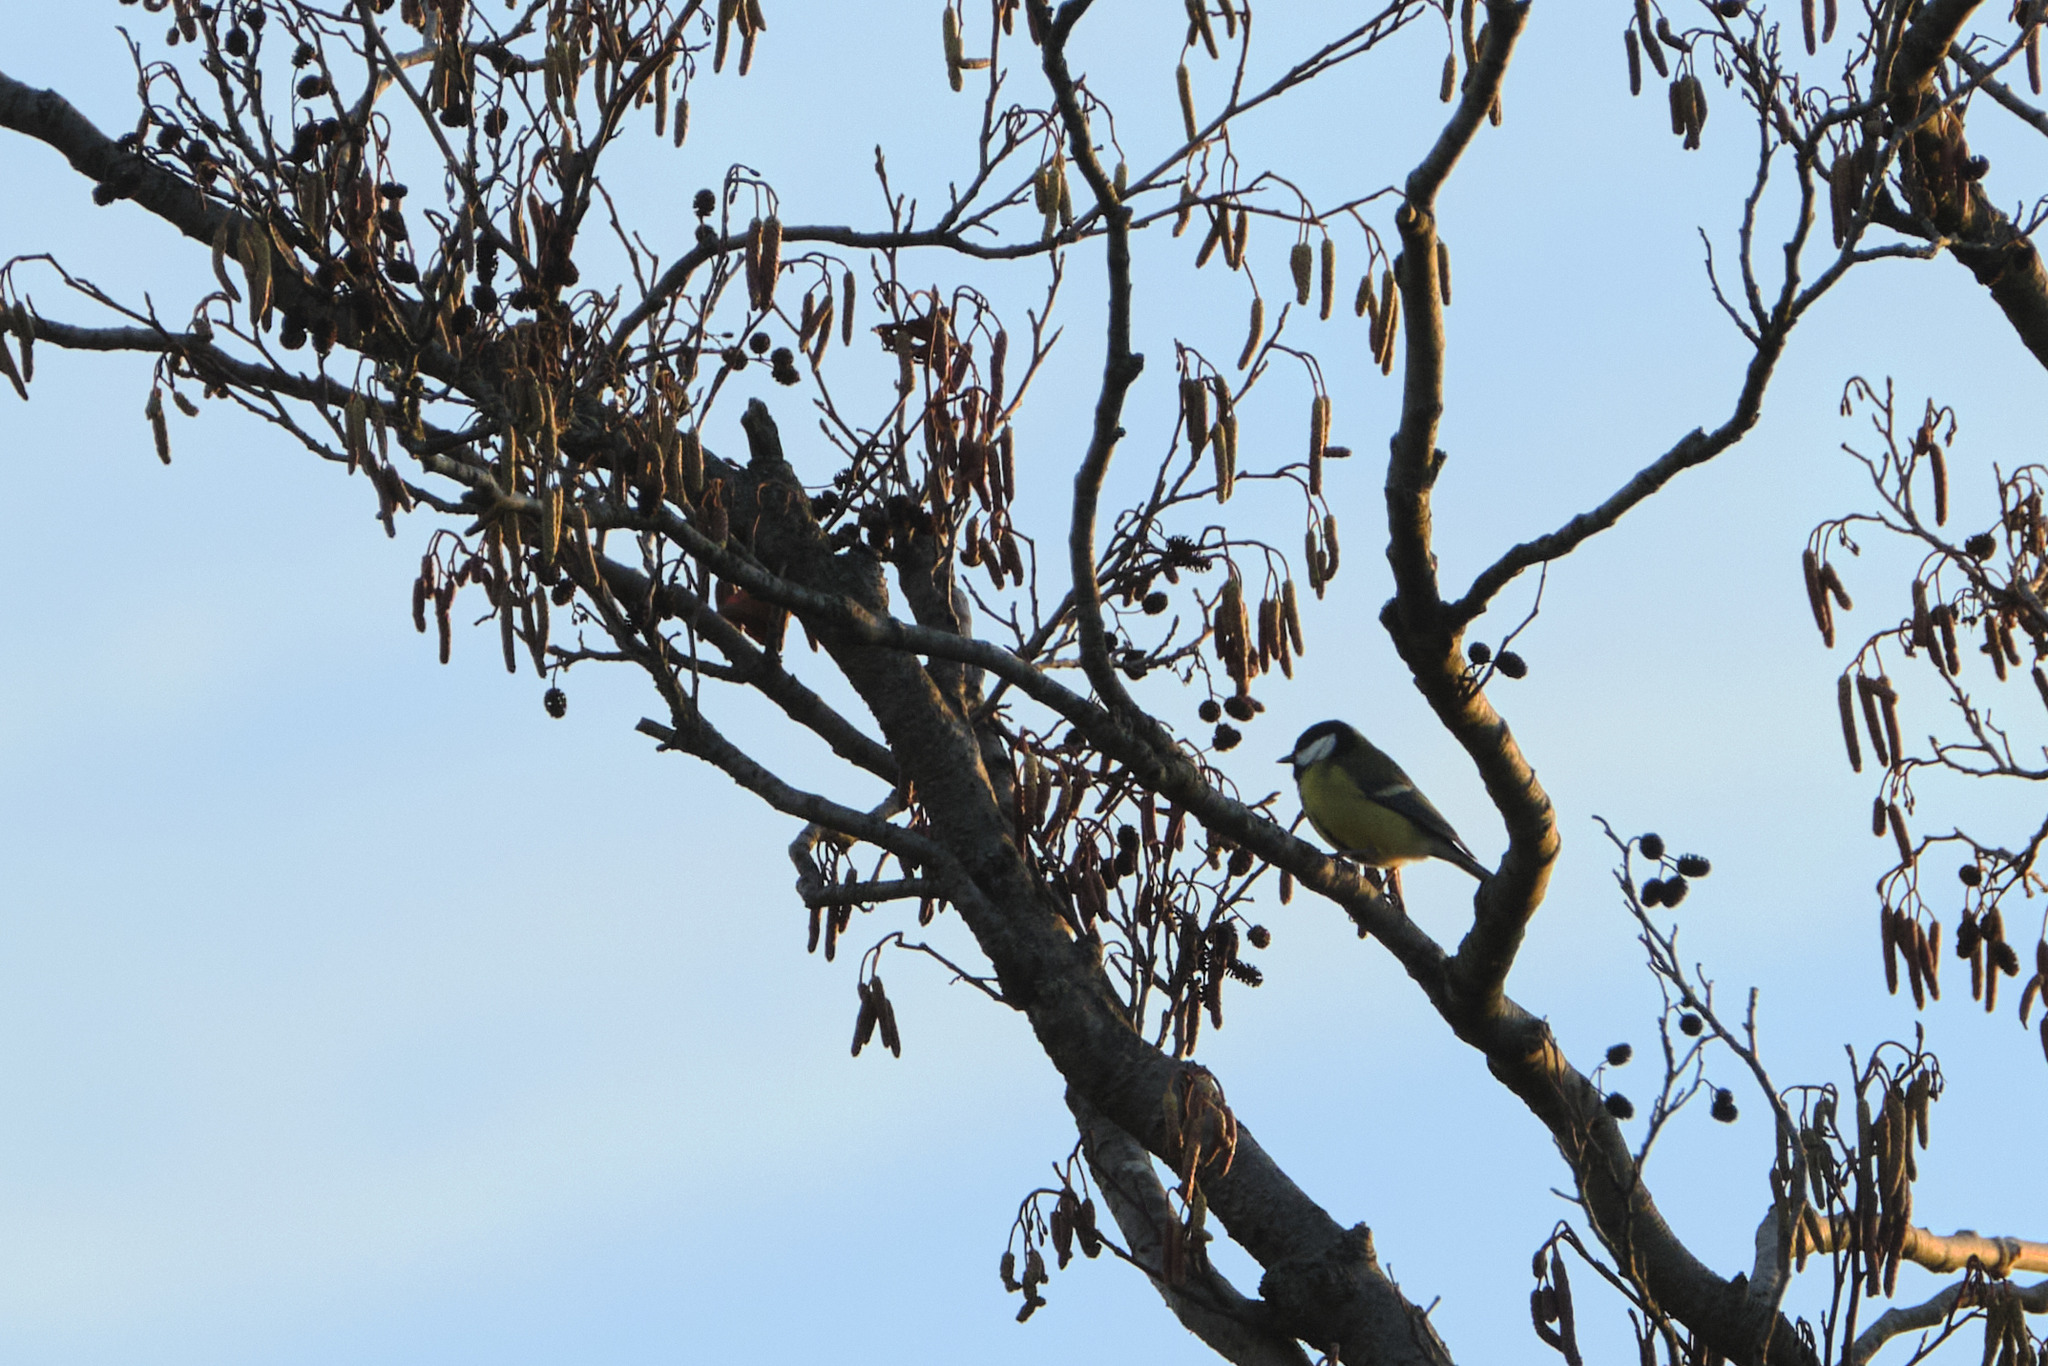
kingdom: Animalia
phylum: Chordata
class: Aves
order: Passeriformes
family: Paridae
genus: Parus
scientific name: Parus major
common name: Great tit
